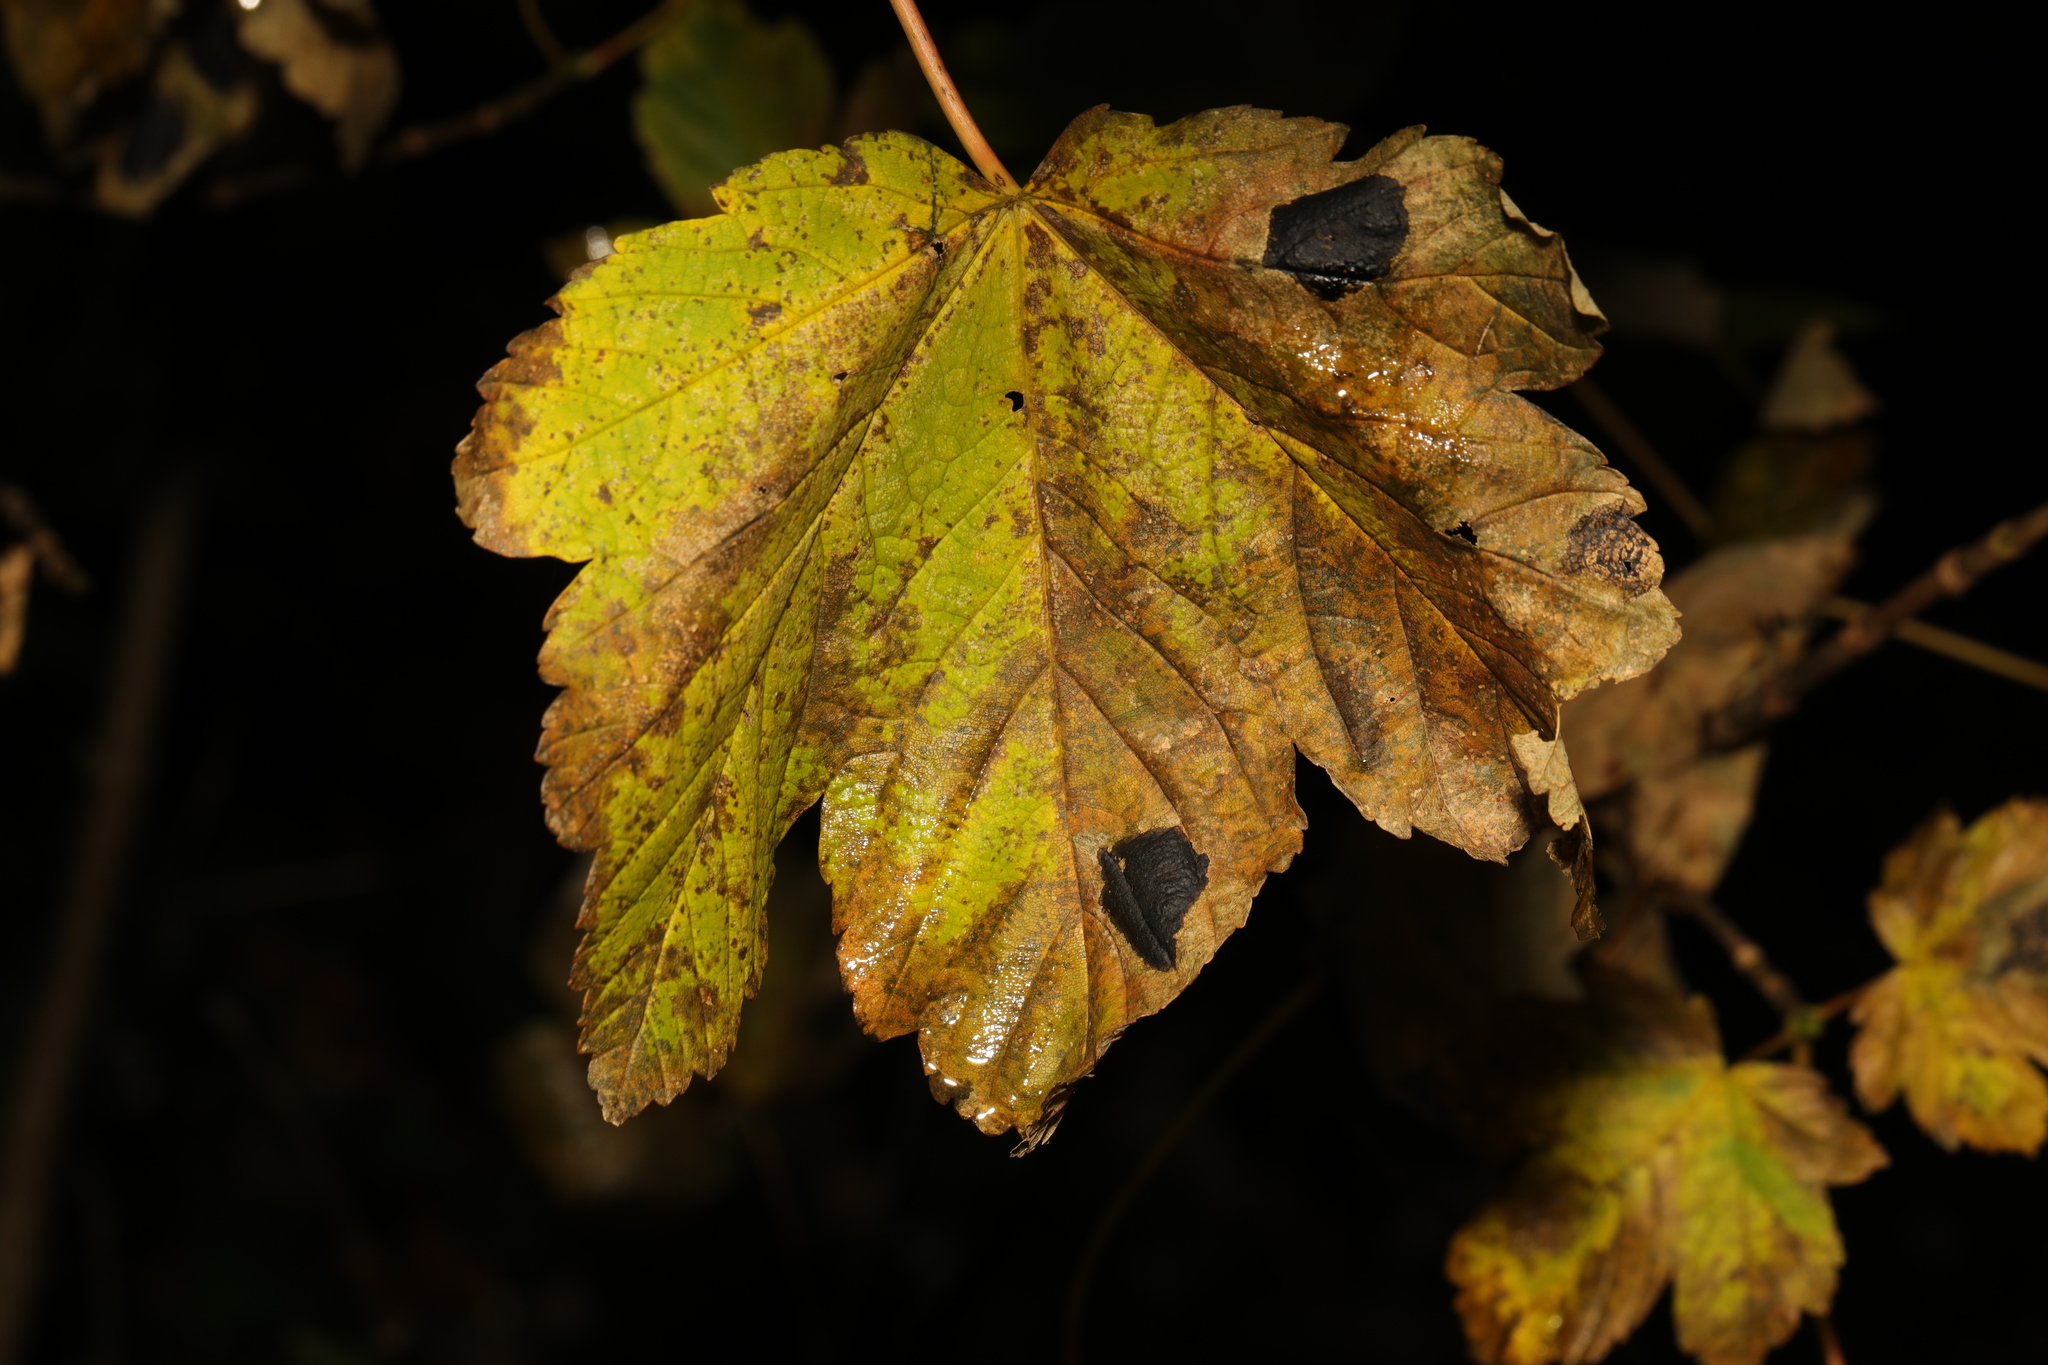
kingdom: Fungi
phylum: Ascomycota
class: Leotiomycetes
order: Rhytismatales
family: Rhytismataceae
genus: Rhytisma
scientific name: Rhytisma acerinum
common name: European tar spot
